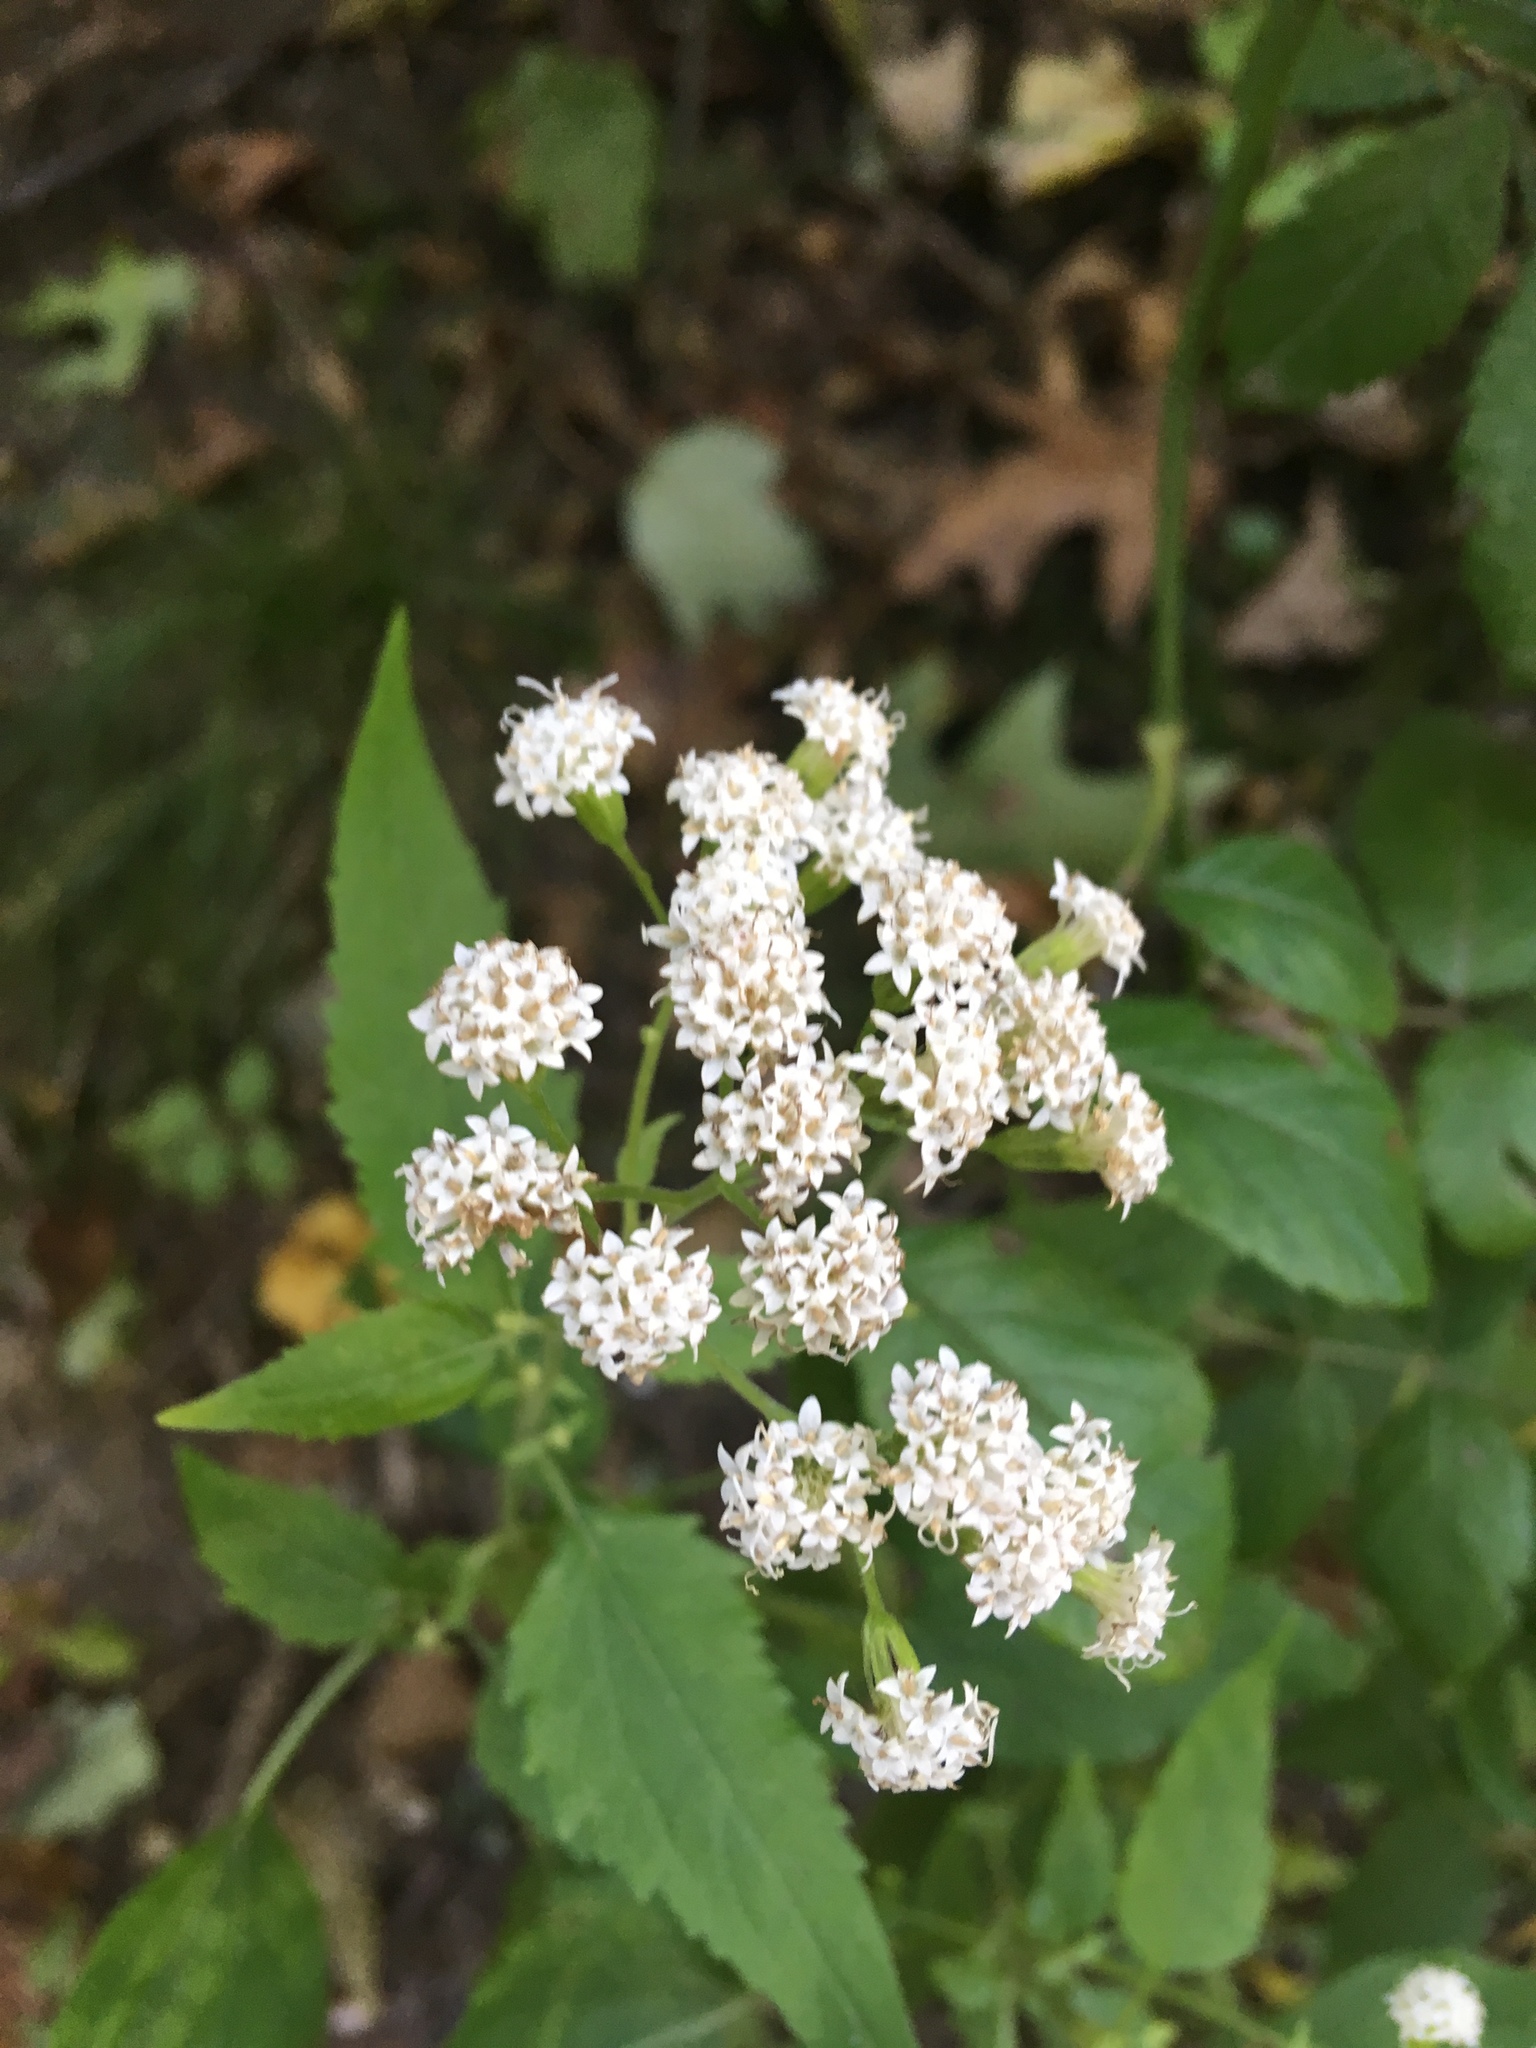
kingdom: Plantae
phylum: Tracheophyta
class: Magnoliopsida
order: Asterales
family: Asteraceae
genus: Ageratina
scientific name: Ageratina altissima
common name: White snakeroot
